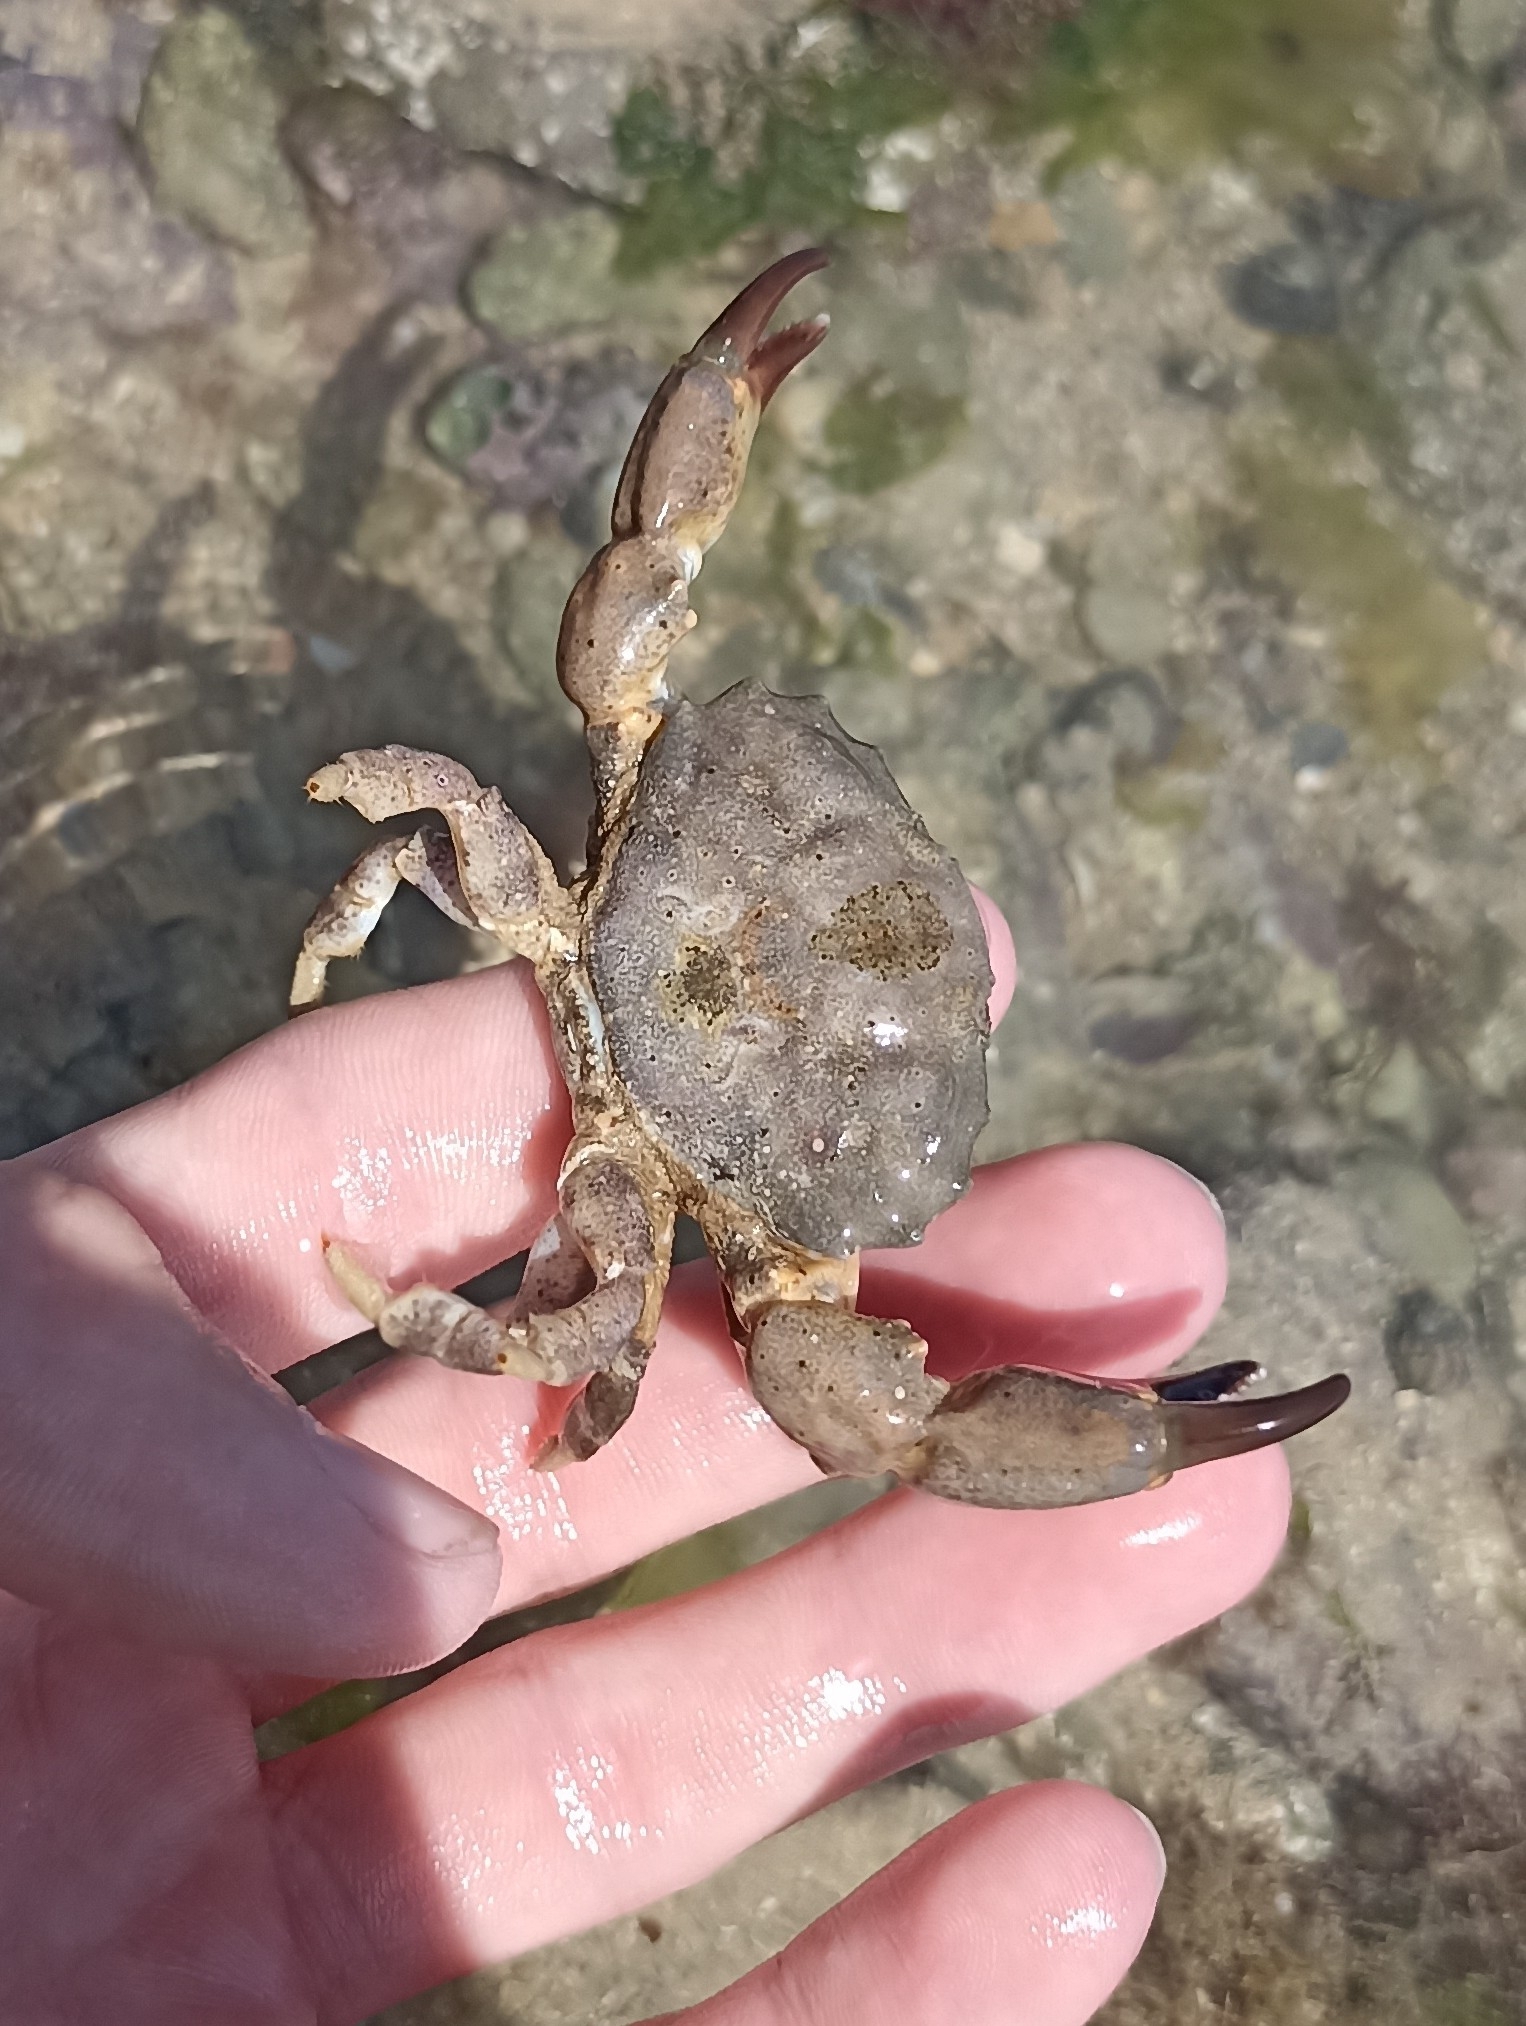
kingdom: Animalia
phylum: Arthropoda
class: Malacostraca
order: Decapoda
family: Xanthidae
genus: Xantho
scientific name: Xantho hydrophilus
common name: Montagu's crab
